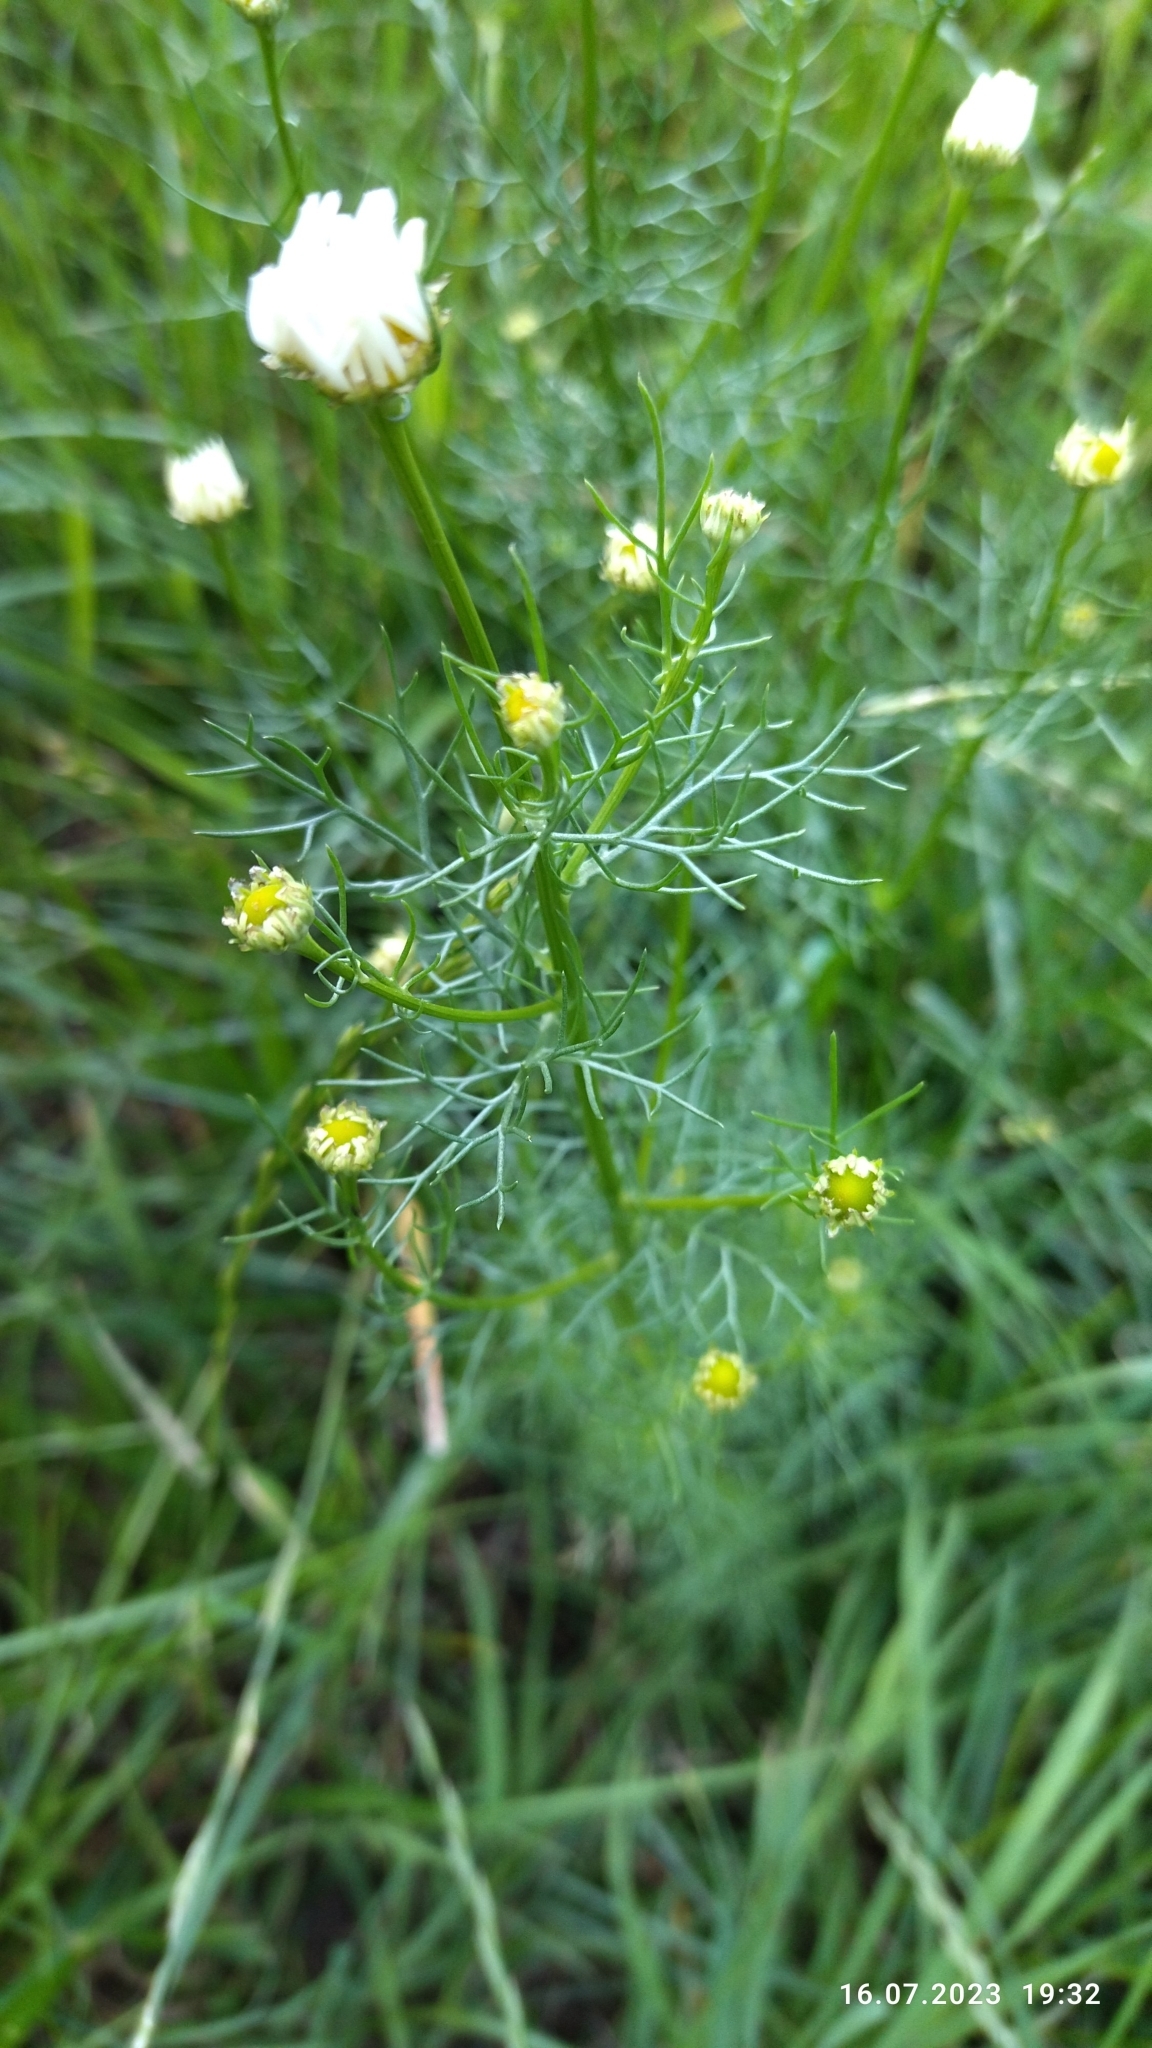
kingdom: Plantae
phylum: Tracheophyta
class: Magnoliopsida
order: Asterales
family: Asteraceae
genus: Tripleurospermum
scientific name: Tripleurospermum inodorum
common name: Scentless mayweed
